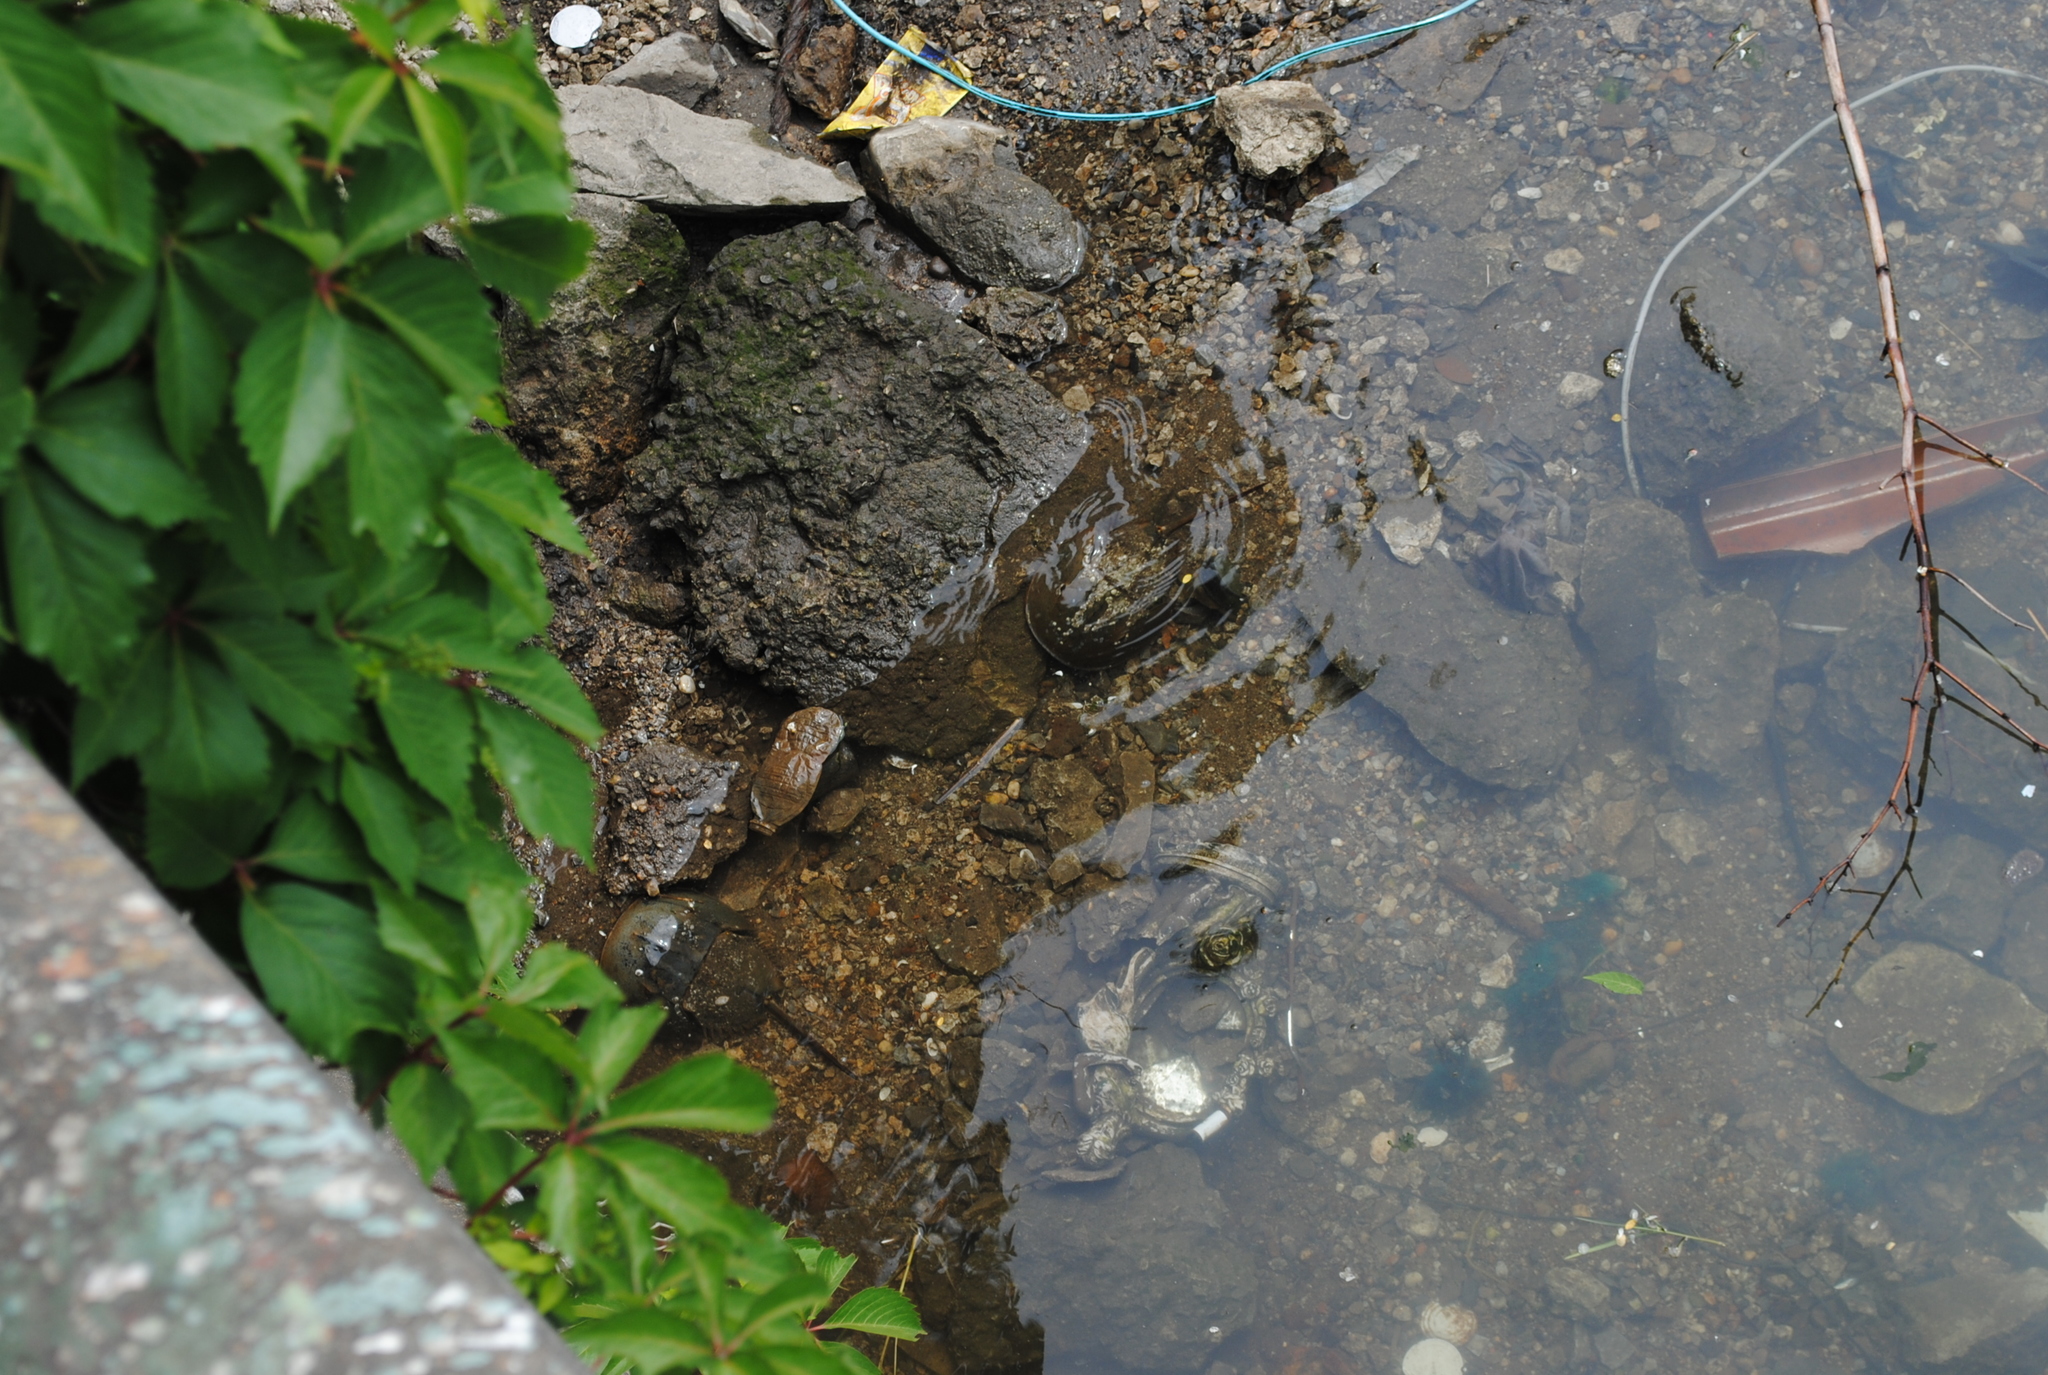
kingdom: Animalia
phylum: Arthropoda
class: Merostomata
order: Xiphosurida
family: Limulidae
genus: Limulus
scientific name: Limulus polyphemus
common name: Horseshoe crab
